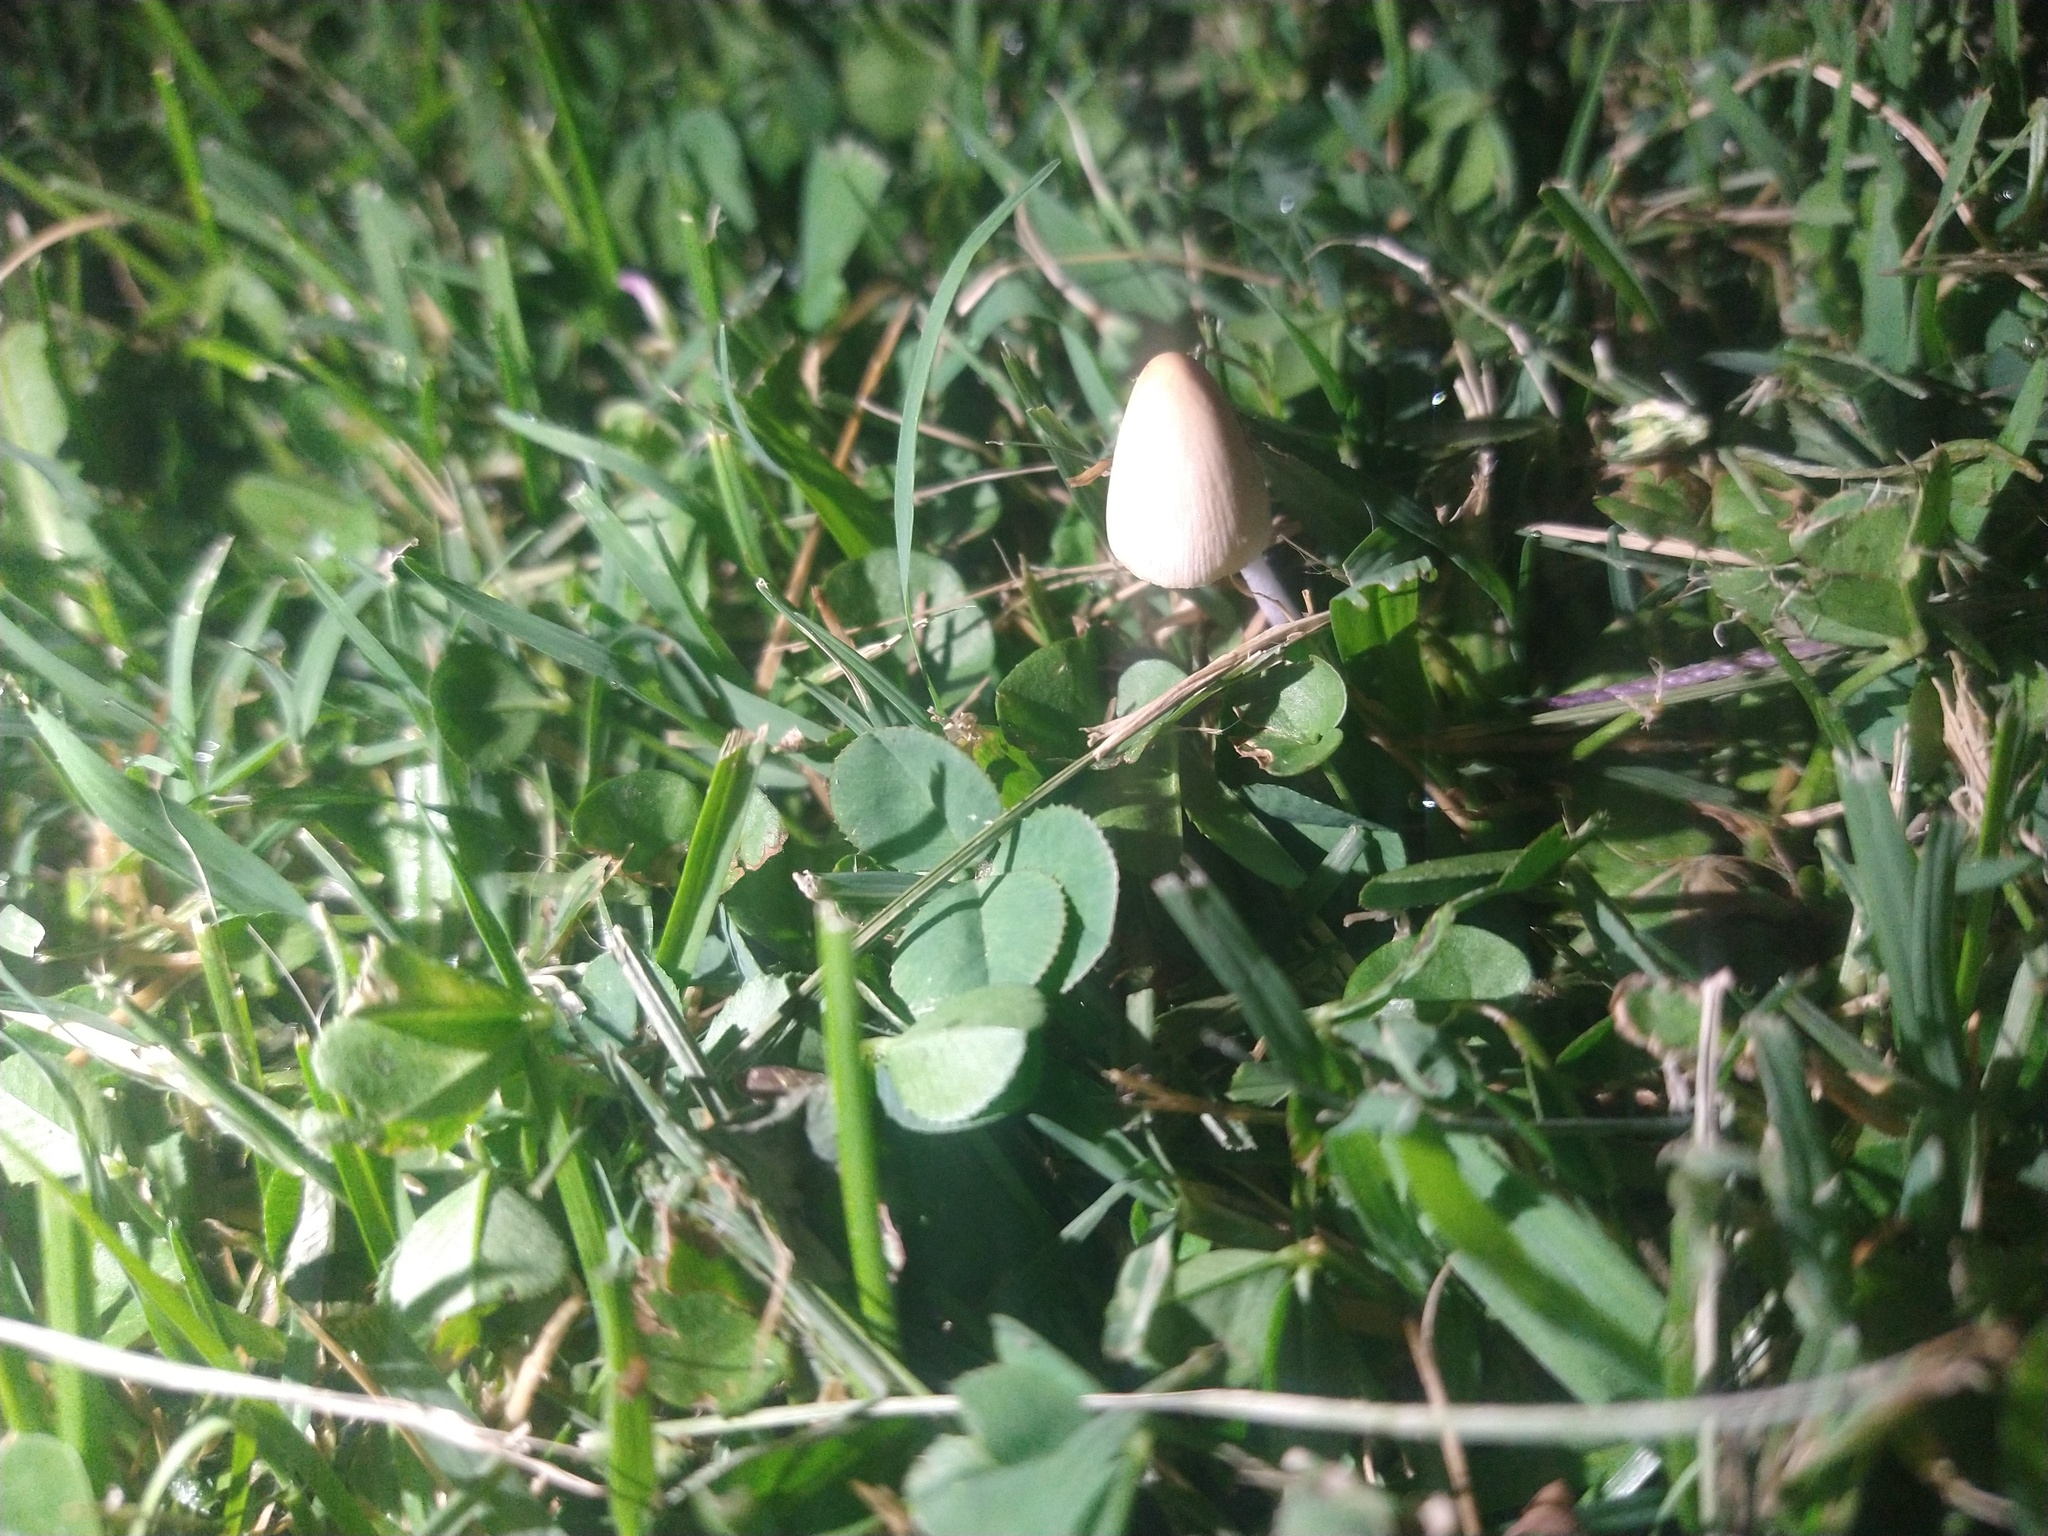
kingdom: Fungi
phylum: Basidiomycota
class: Agaricomycetes
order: Agaricales
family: Bolbitiaceae
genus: Conocybe
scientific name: Conocybe apala
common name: Milky conecap
